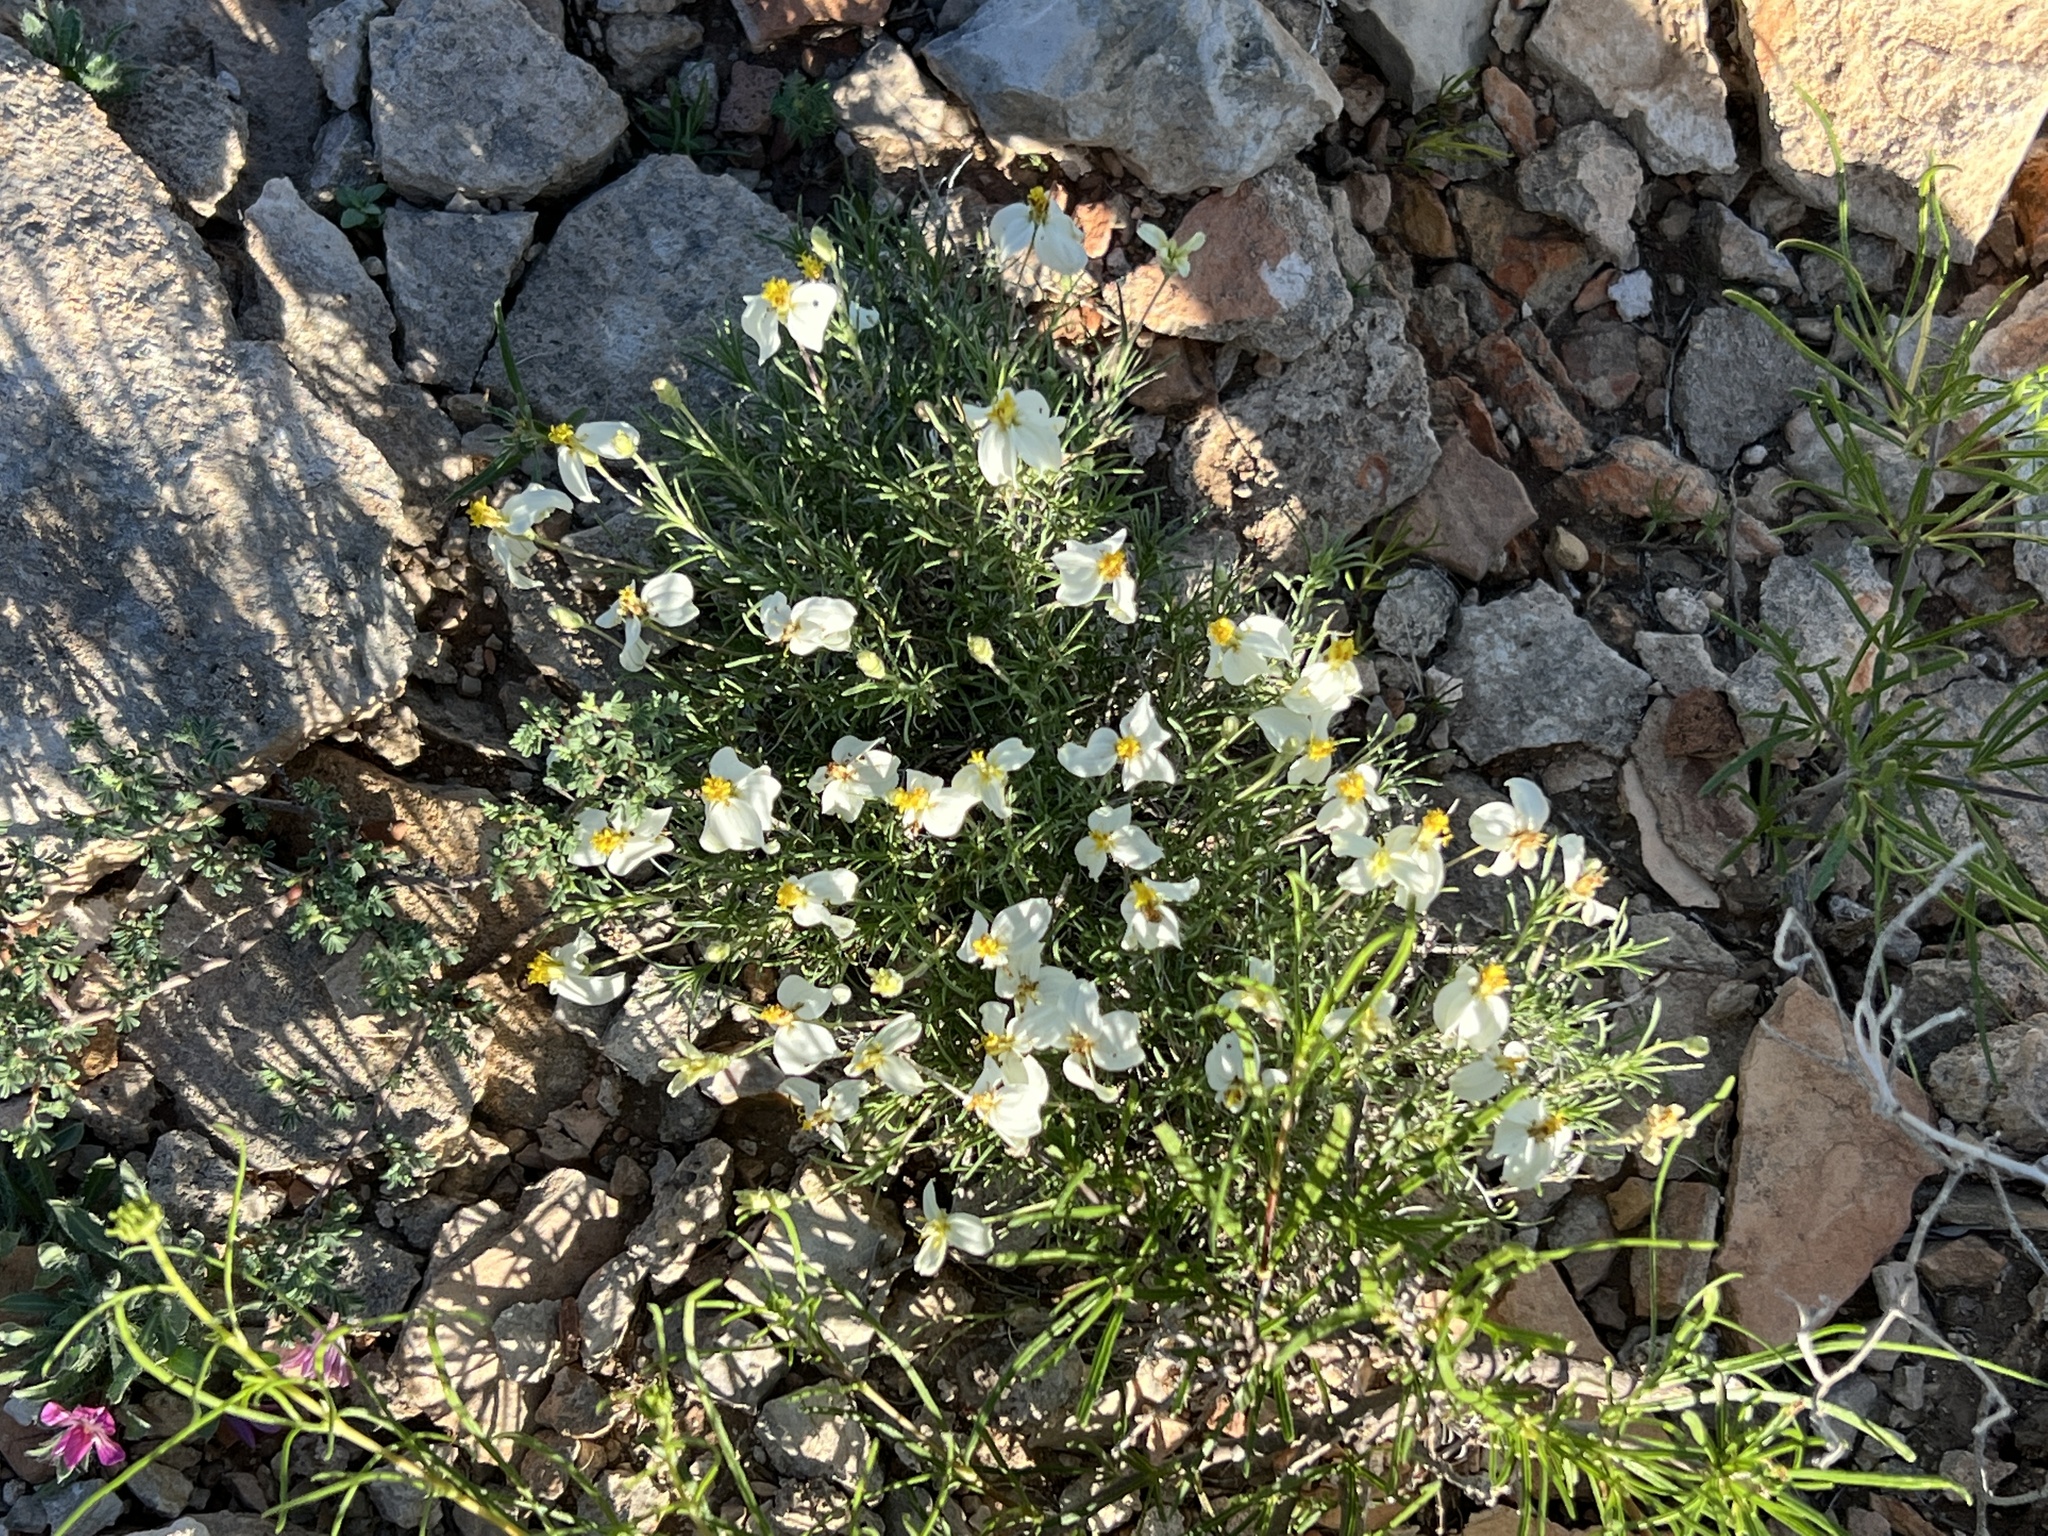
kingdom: Plantae
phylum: Tracheophyta
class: Magnoliopsida
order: Asterales
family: Asteraceae
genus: Zinnia
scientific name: Zinnia acerosa
